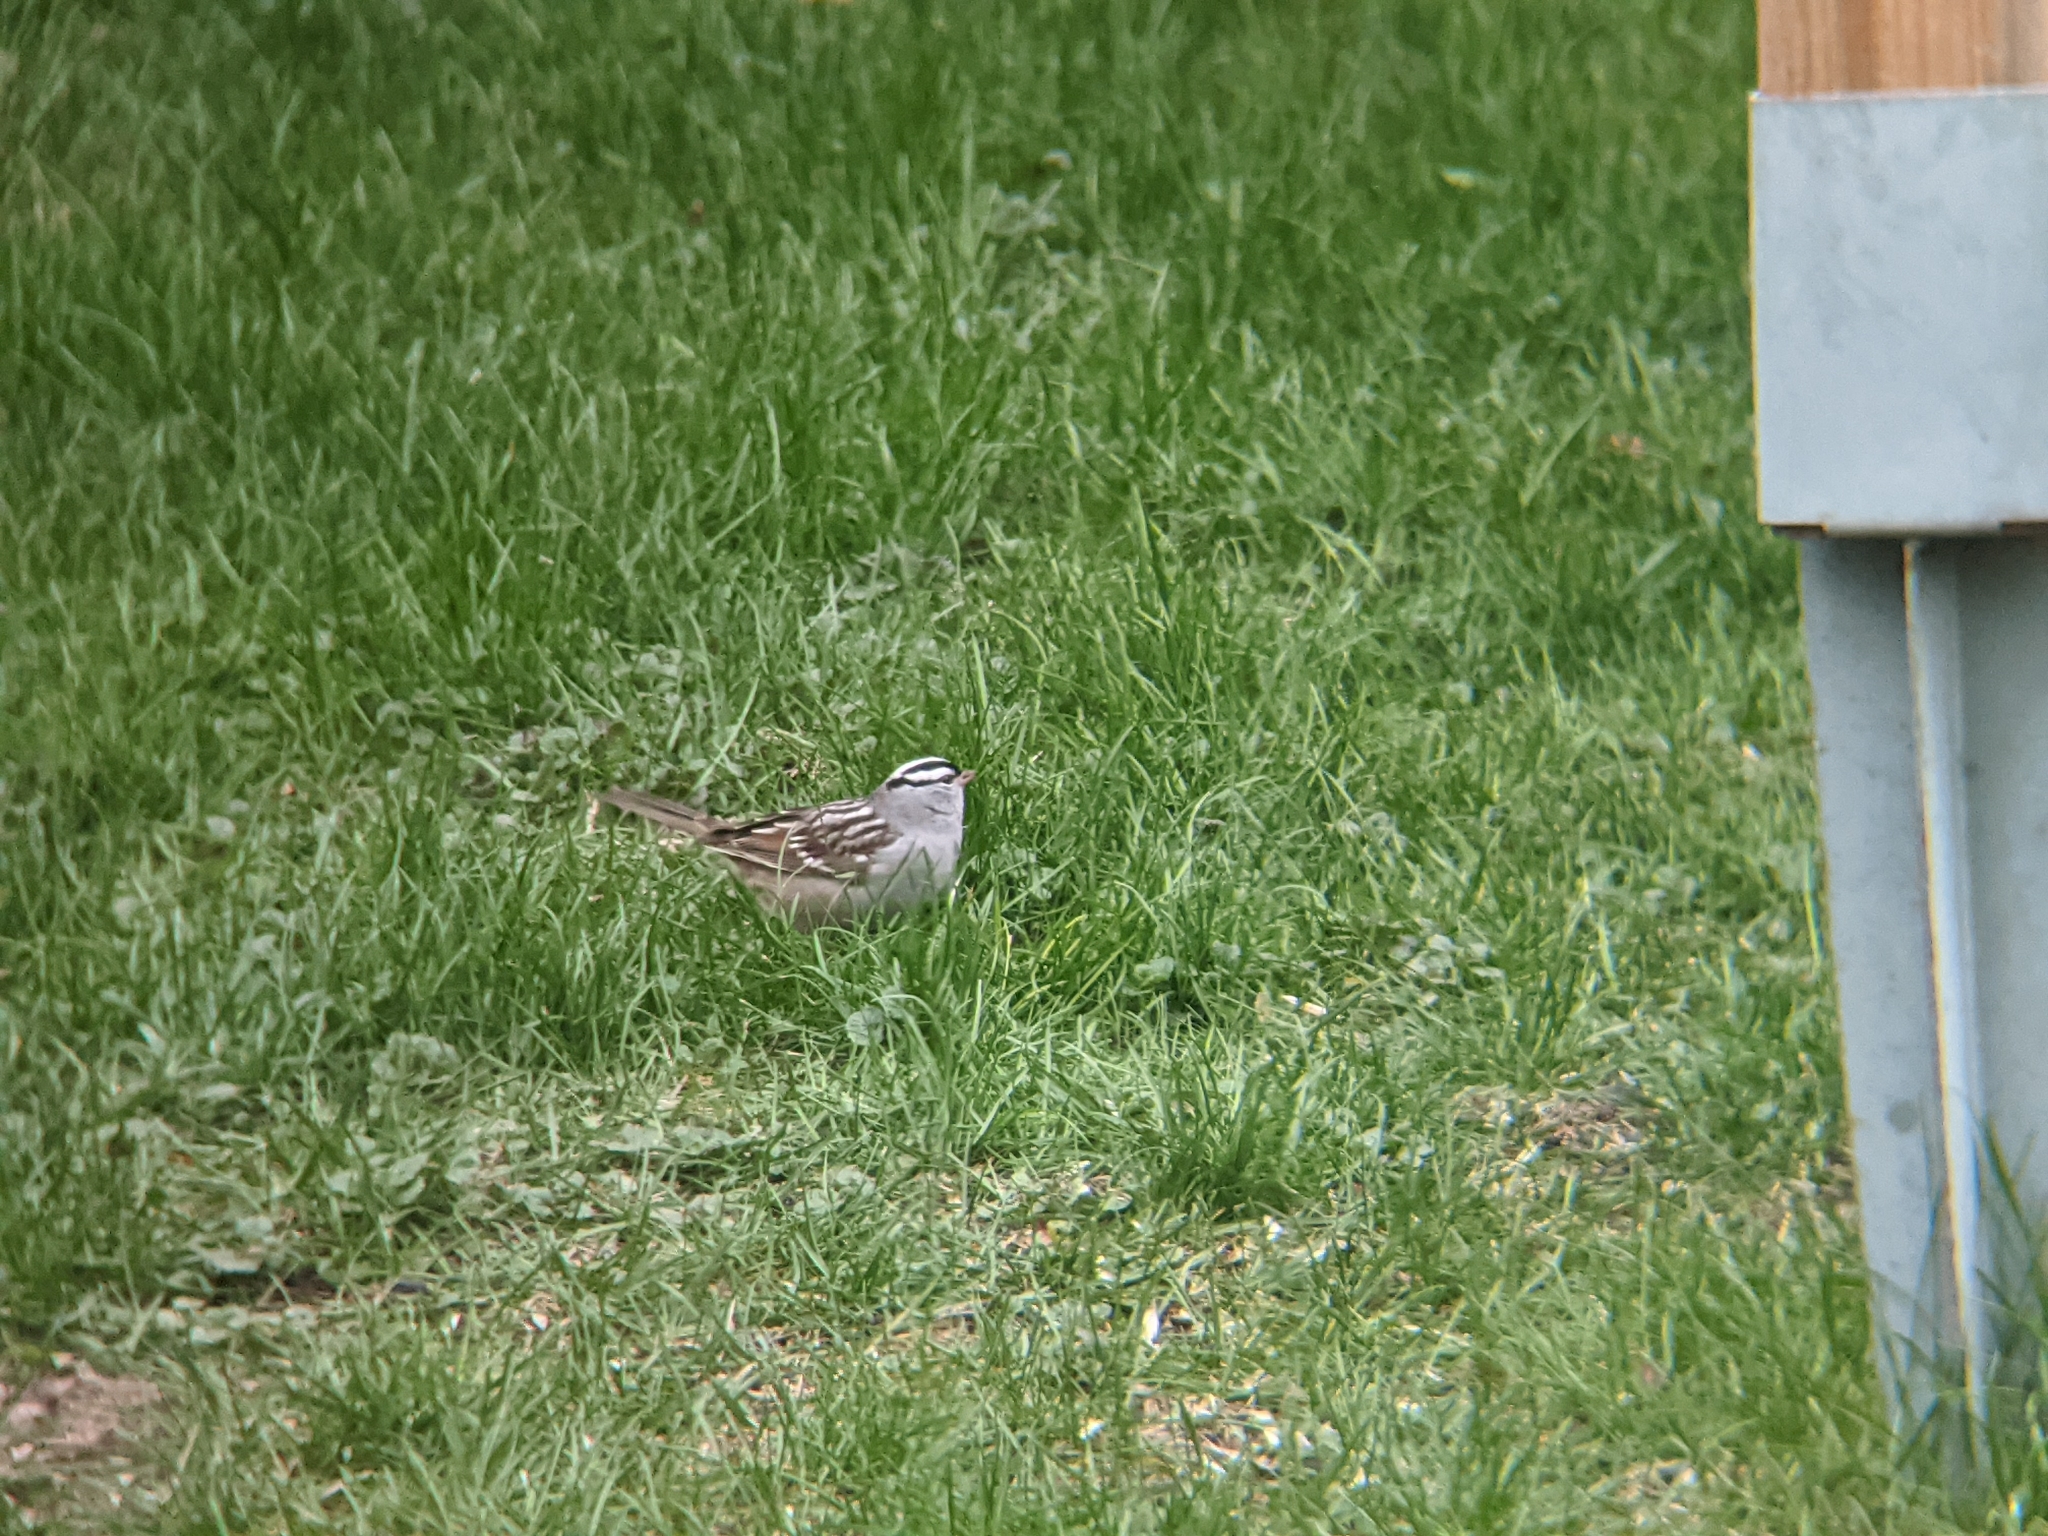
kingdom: Animalia
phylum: Chordata
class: Aves
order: Passeriformes
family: Passerellidae
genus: Zonotrichia
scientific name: Zonotrichia leucophrys
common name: White-crowned sparrow
